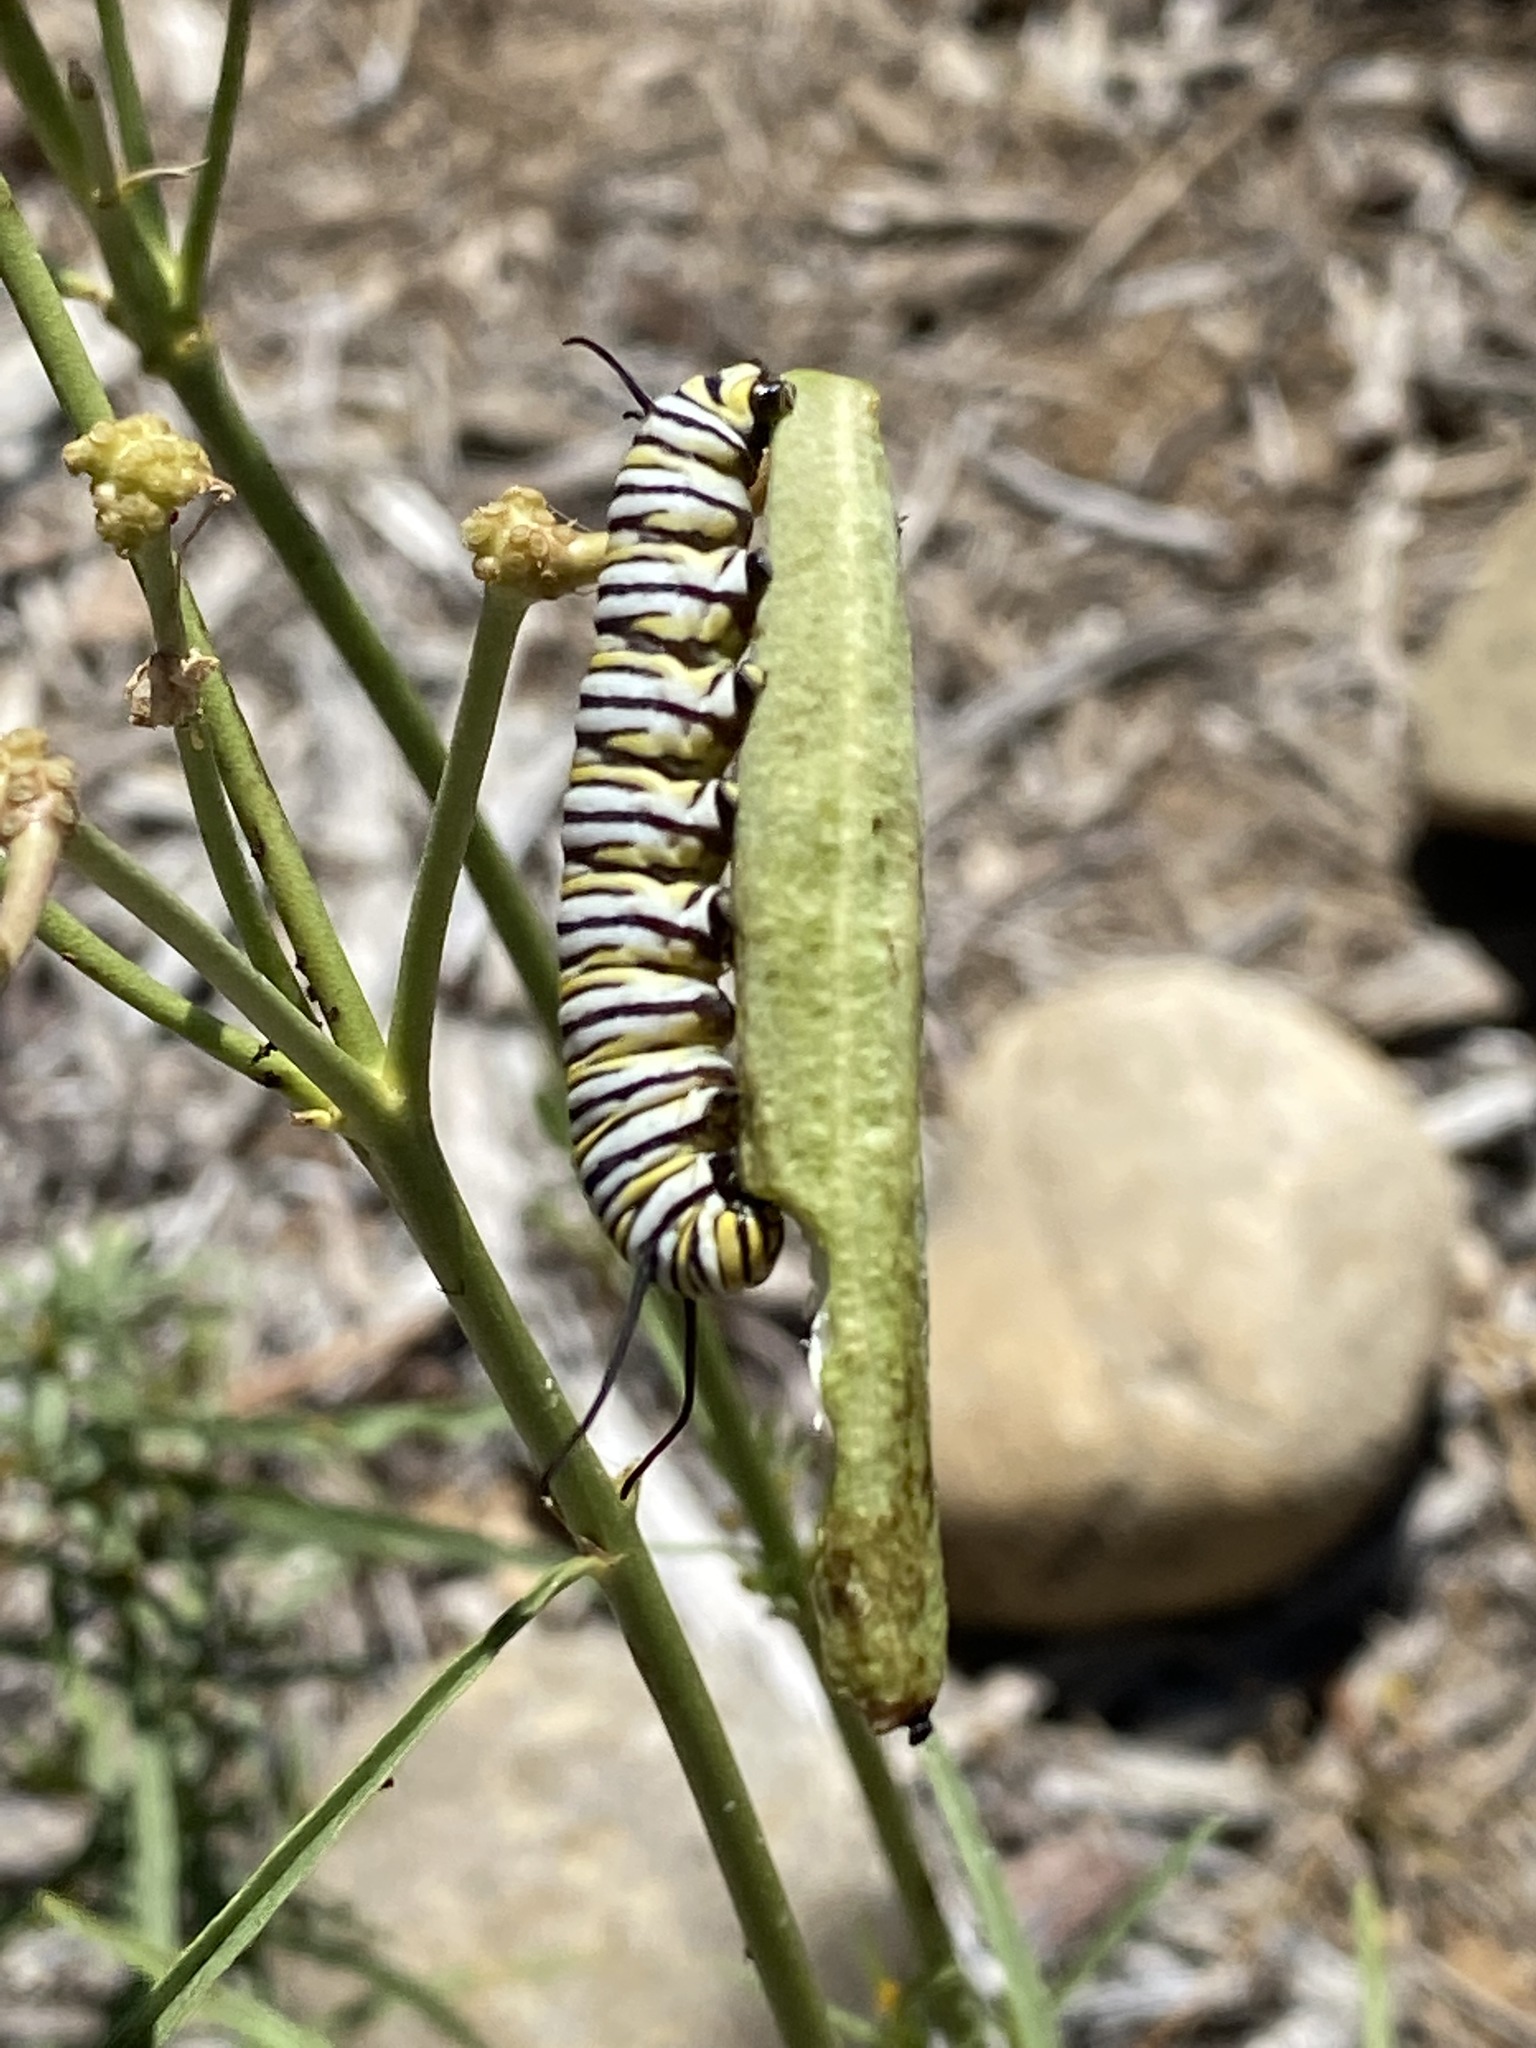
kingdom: Plantae
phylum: Tracheophyta
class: Magnoliopsida
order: Gentianales
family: Apocynaceae
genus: Asclepias
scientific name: Asclepias fascicularis
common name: Mexican milkweed
